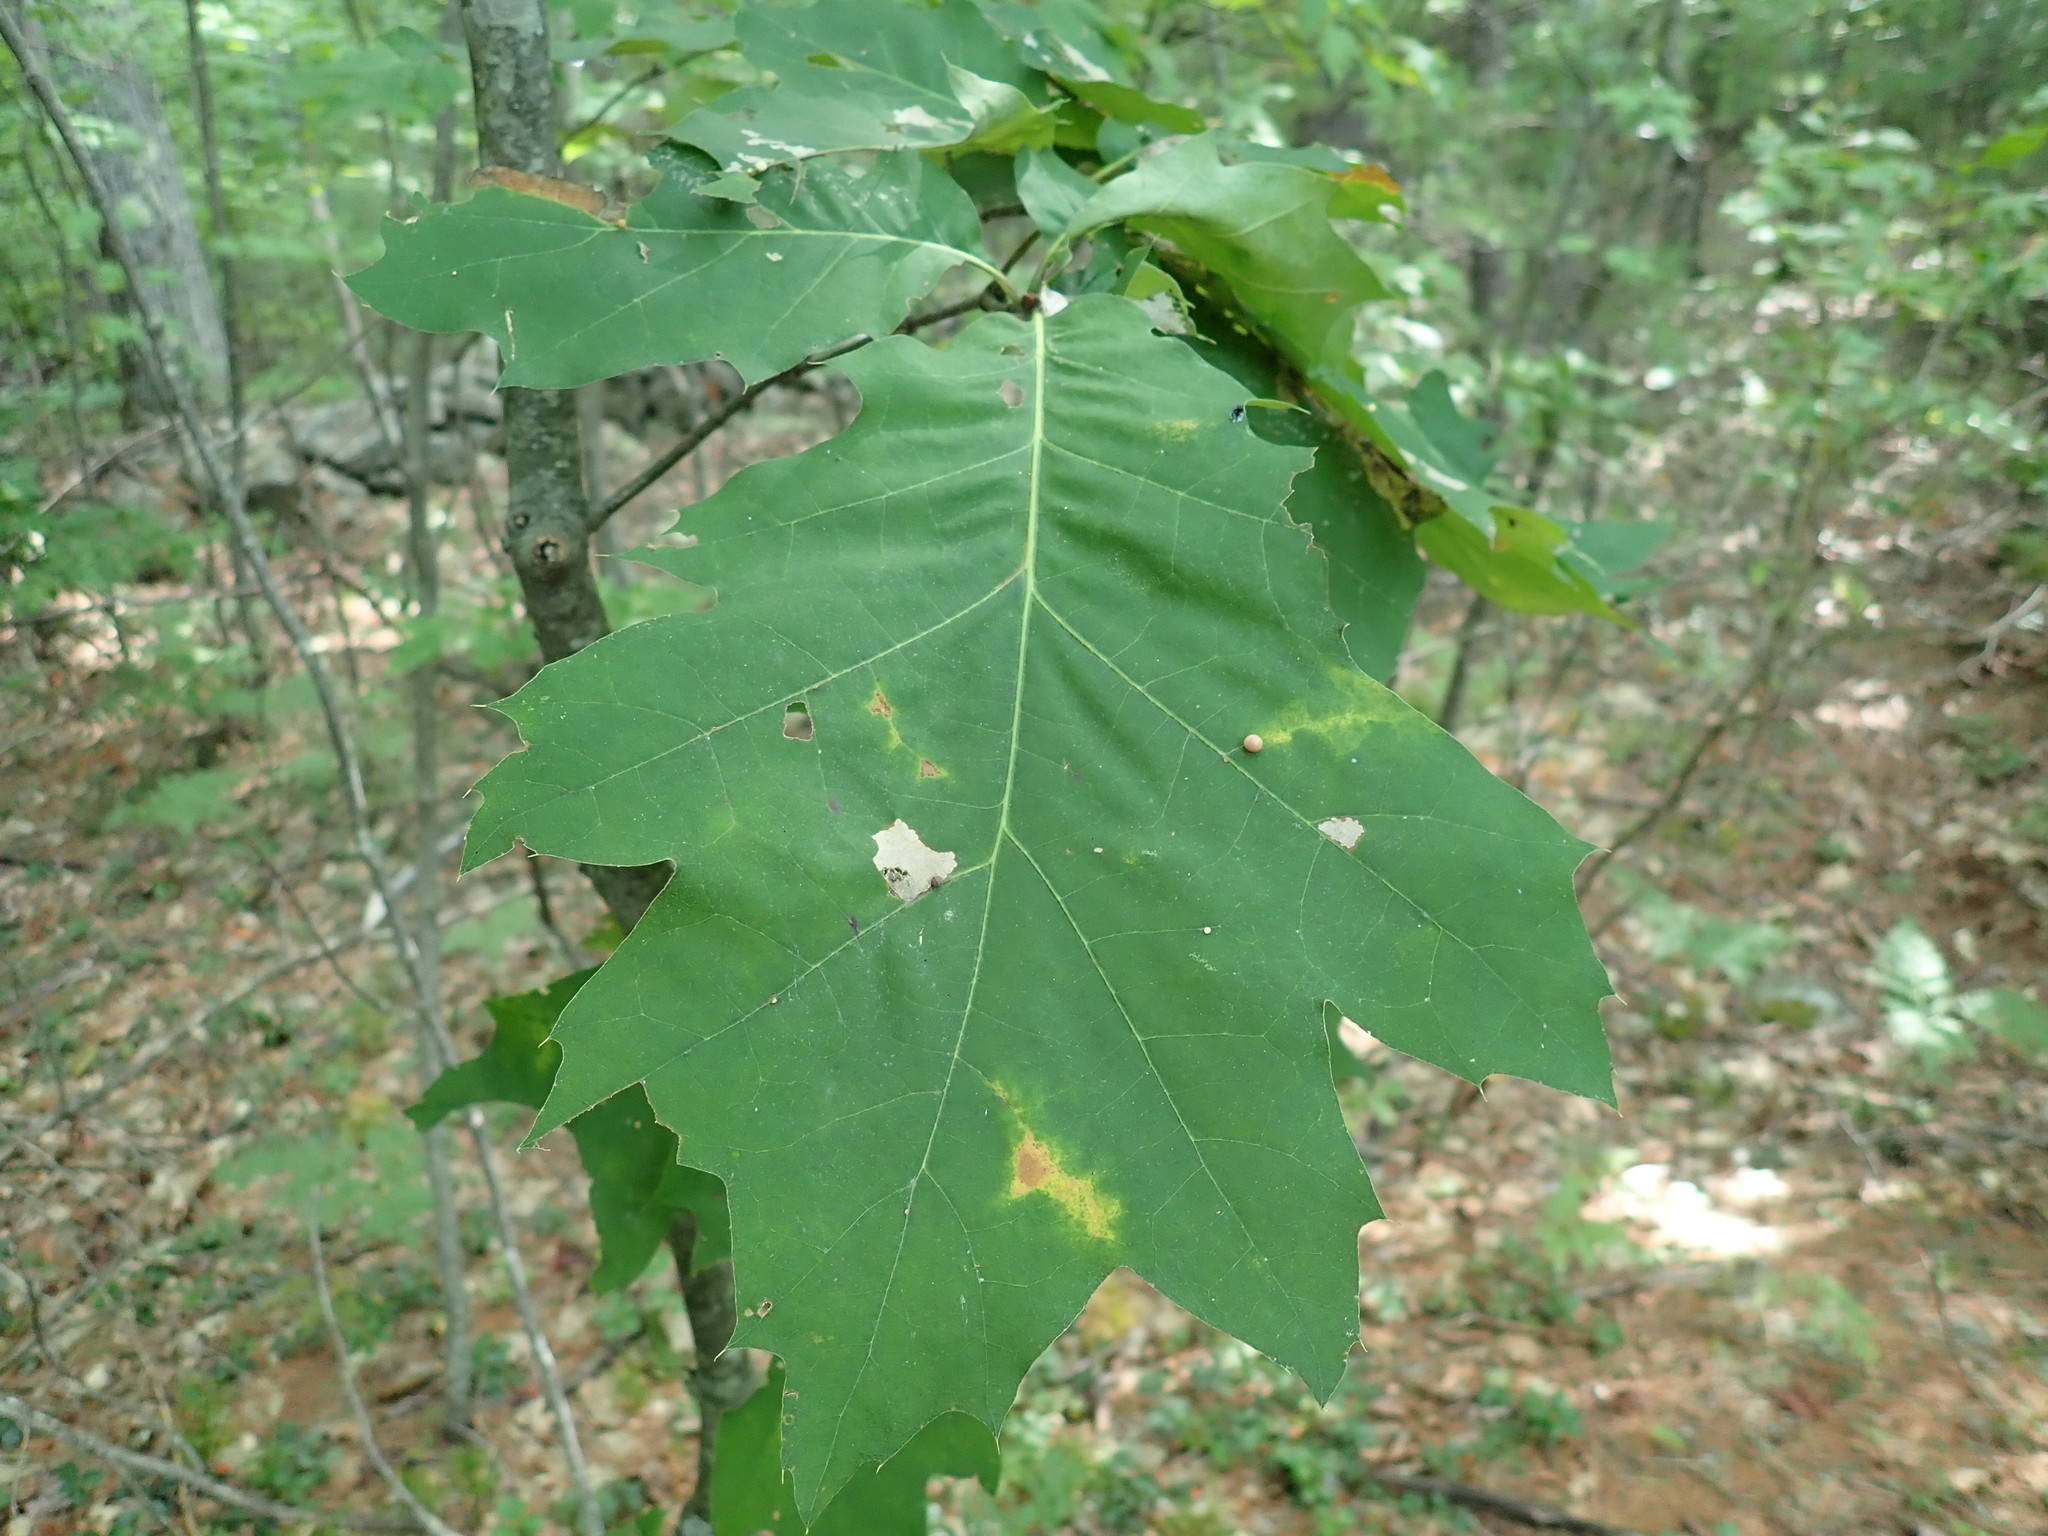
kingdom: Plantae
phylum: Tracheophyta
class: Magnoliopsida
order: Fagales
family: Fagaceae
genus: Quercus
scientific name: Quercus rubra
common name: Red oak
